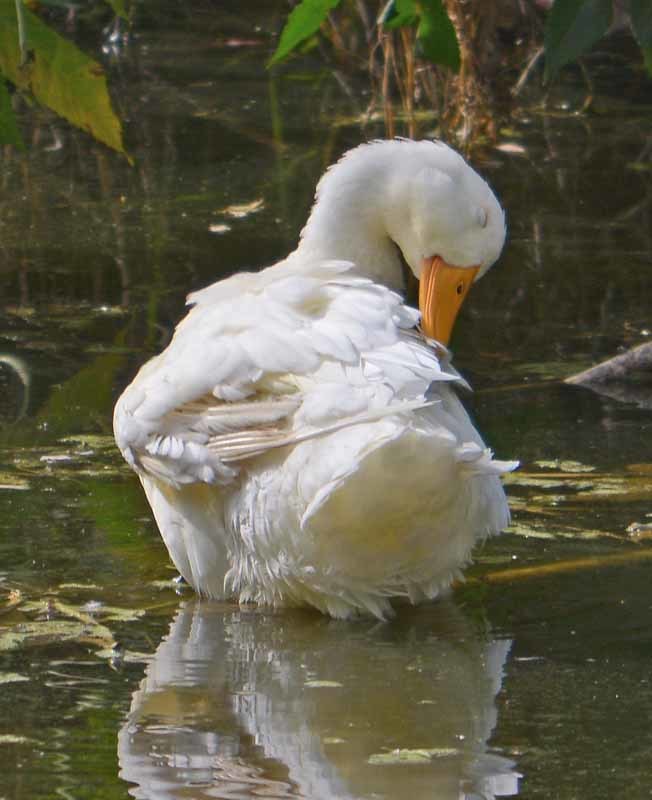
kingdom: Animalia
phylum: Chordata
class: Aves
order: Anseriformes
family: Anatidae
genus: Anas
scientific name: Anas platyrhynchos
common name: Mallard
